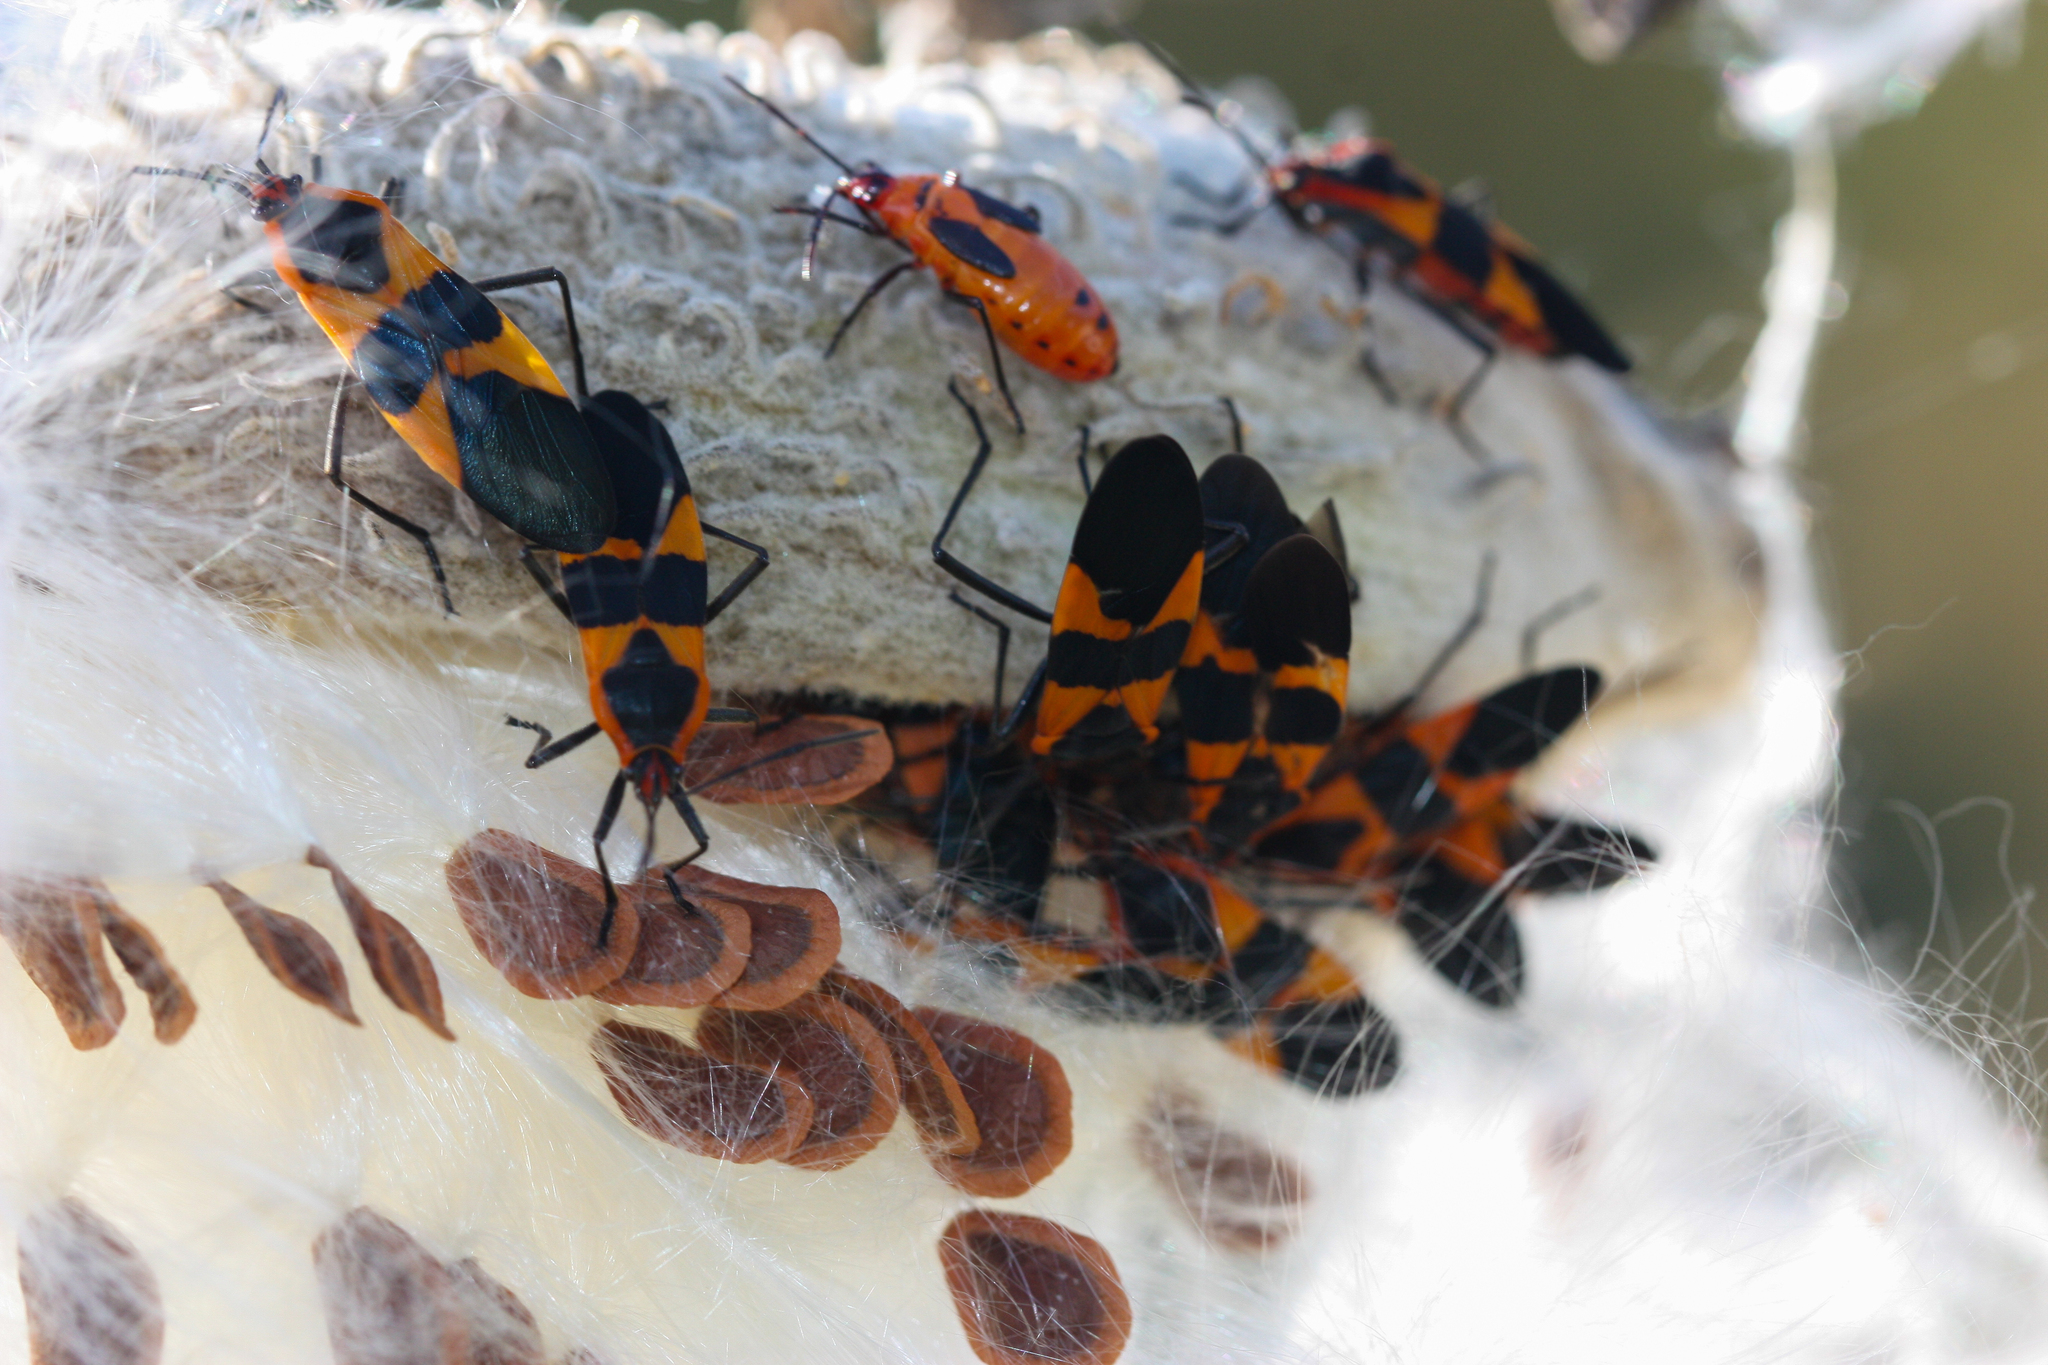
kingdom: Animalia
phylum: Arthropoda
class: Insecta
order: Hemiptera
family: Lygaeidae
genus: Oncopeltus
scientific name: Oncopeltus fasciatus
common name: Large milkweed bug
